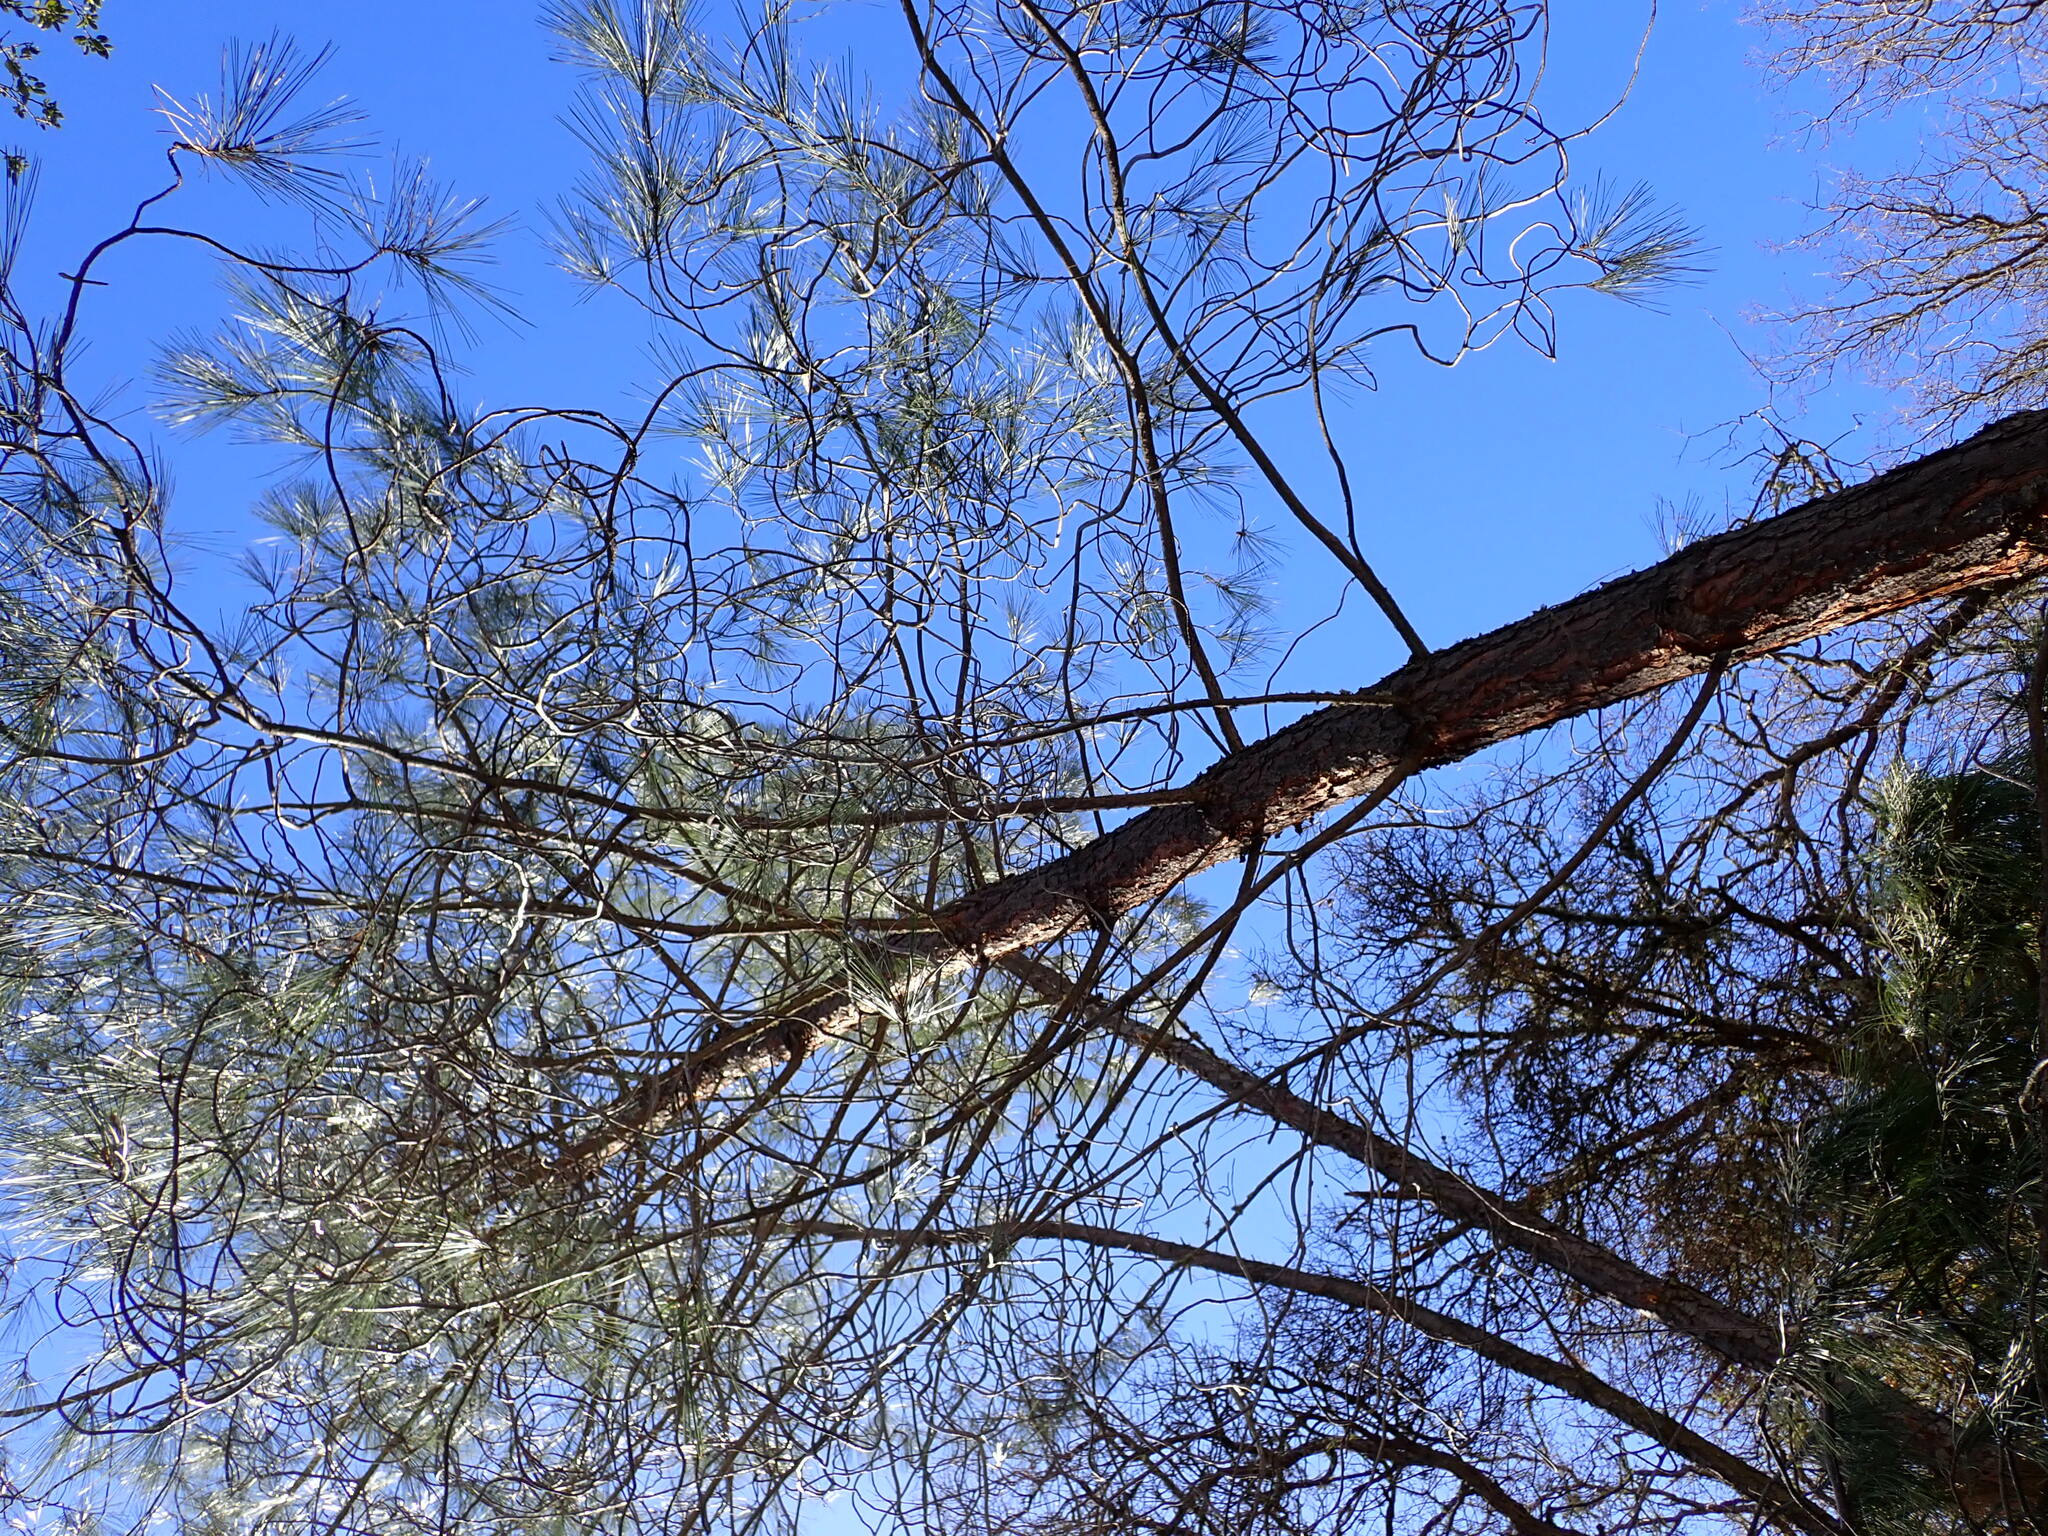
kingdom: Plantae
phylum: Tracheophyta
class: Pinopsida
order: Pinales
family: Pinaceae
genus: Pinus
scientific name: Pinus sabiniana
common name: Bull pine
